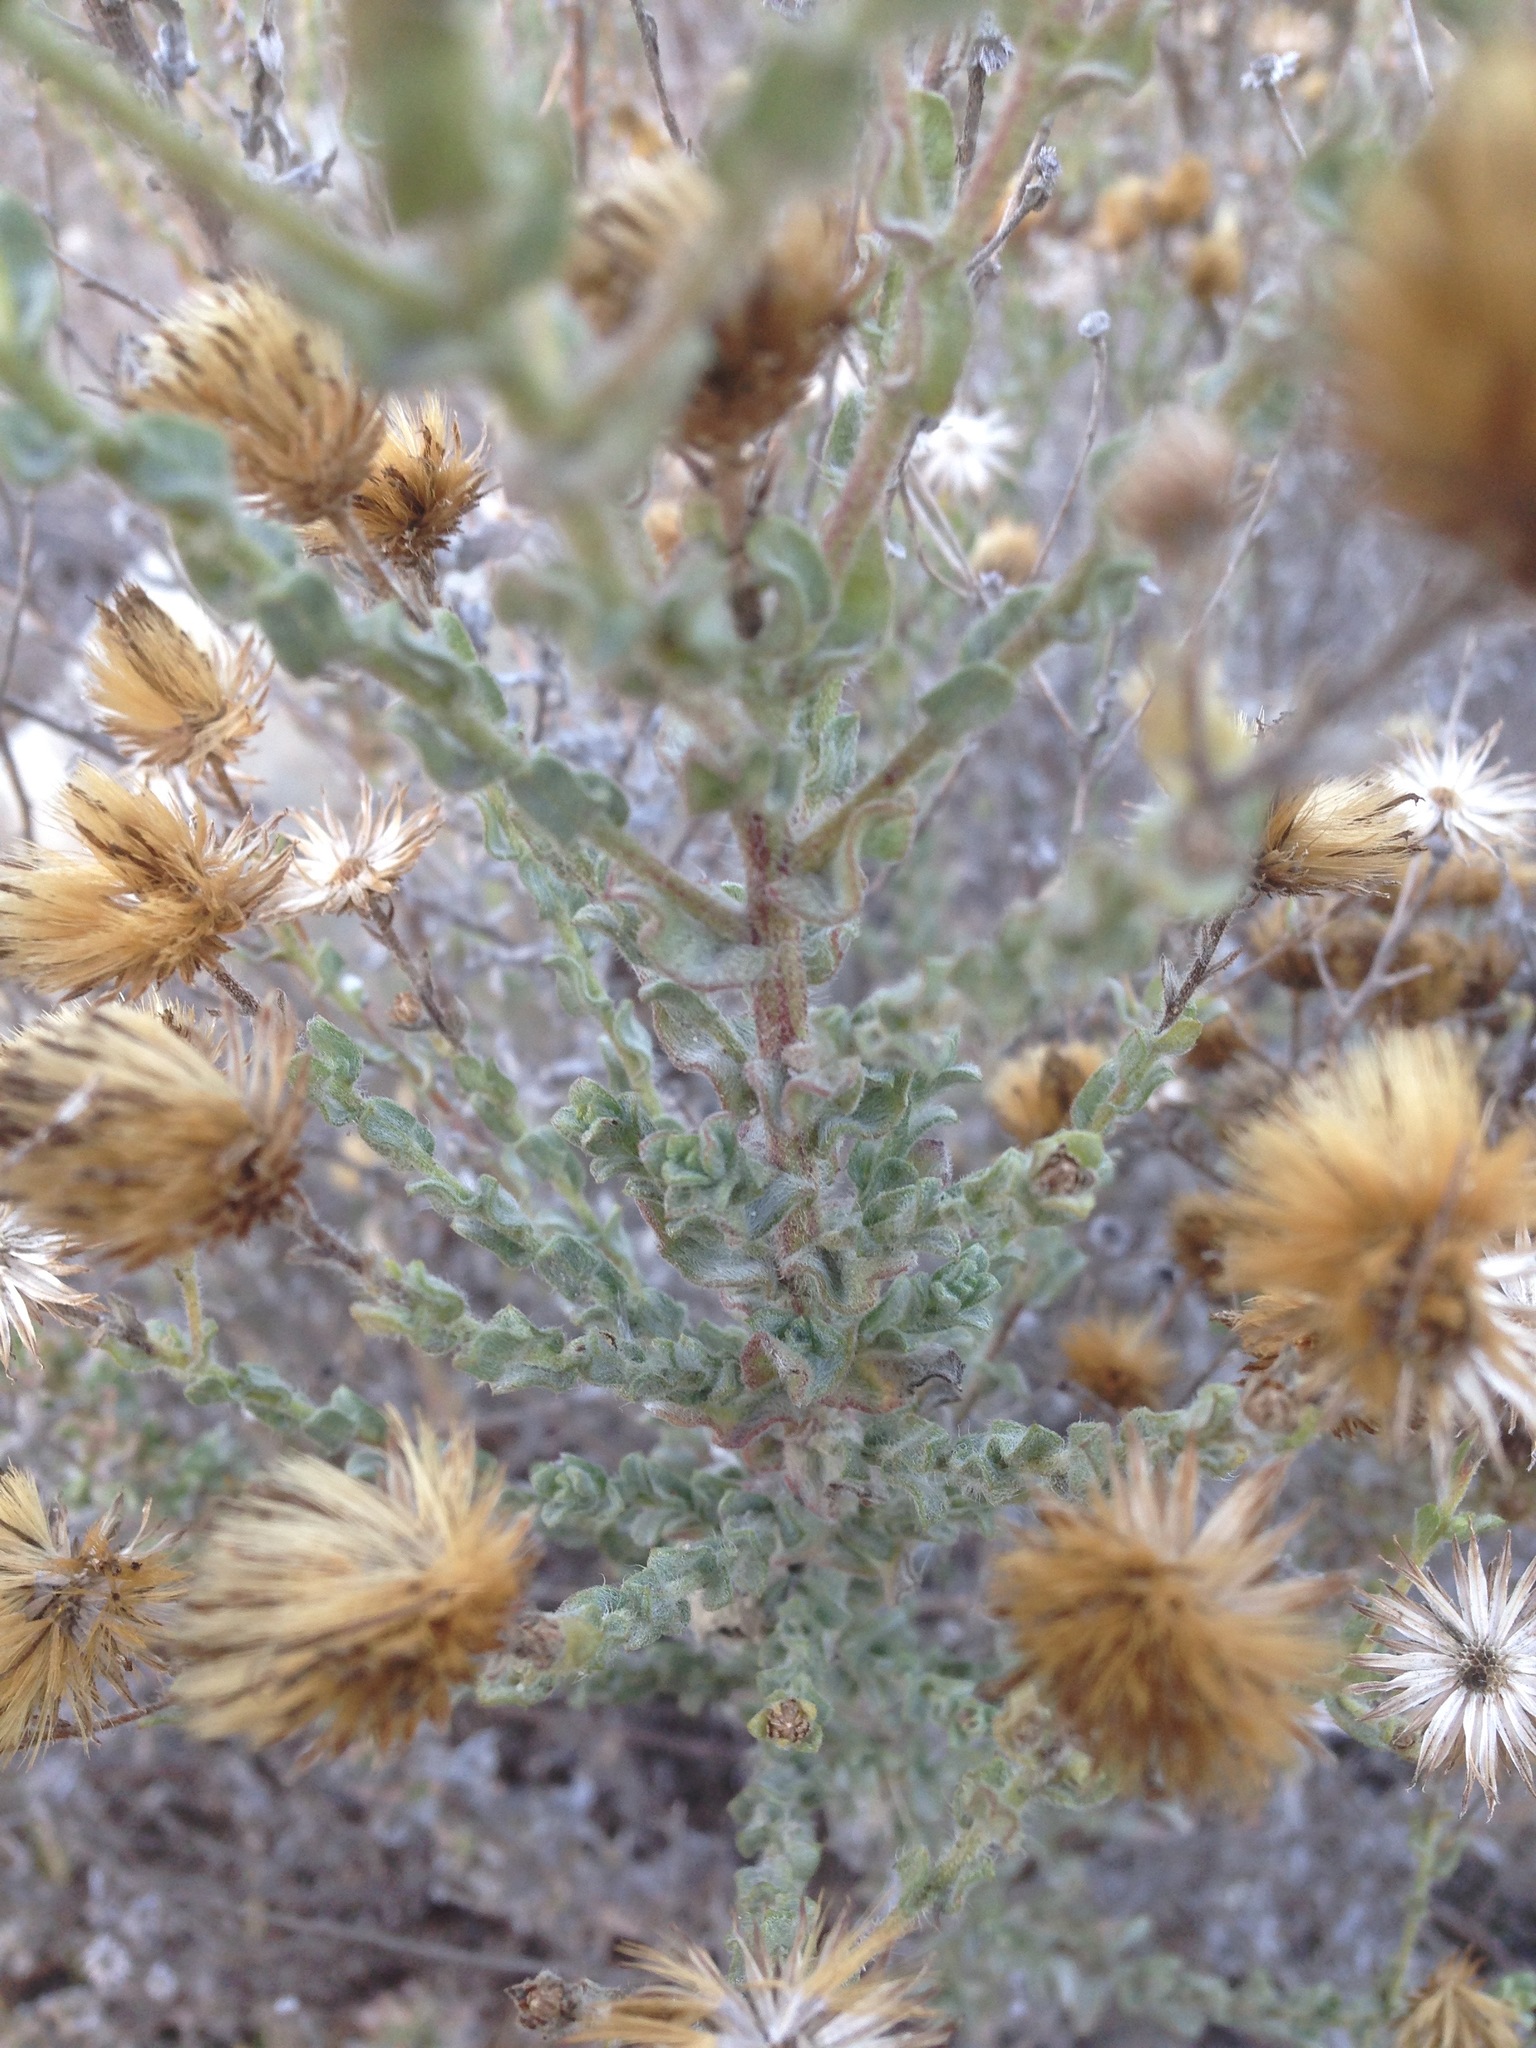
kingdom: Plantae
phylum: Tracheophyta
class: Magnoliopsida
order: Asterales
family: Asteraceae
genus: Heterotheca
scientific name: Heterotheca fastigiata
